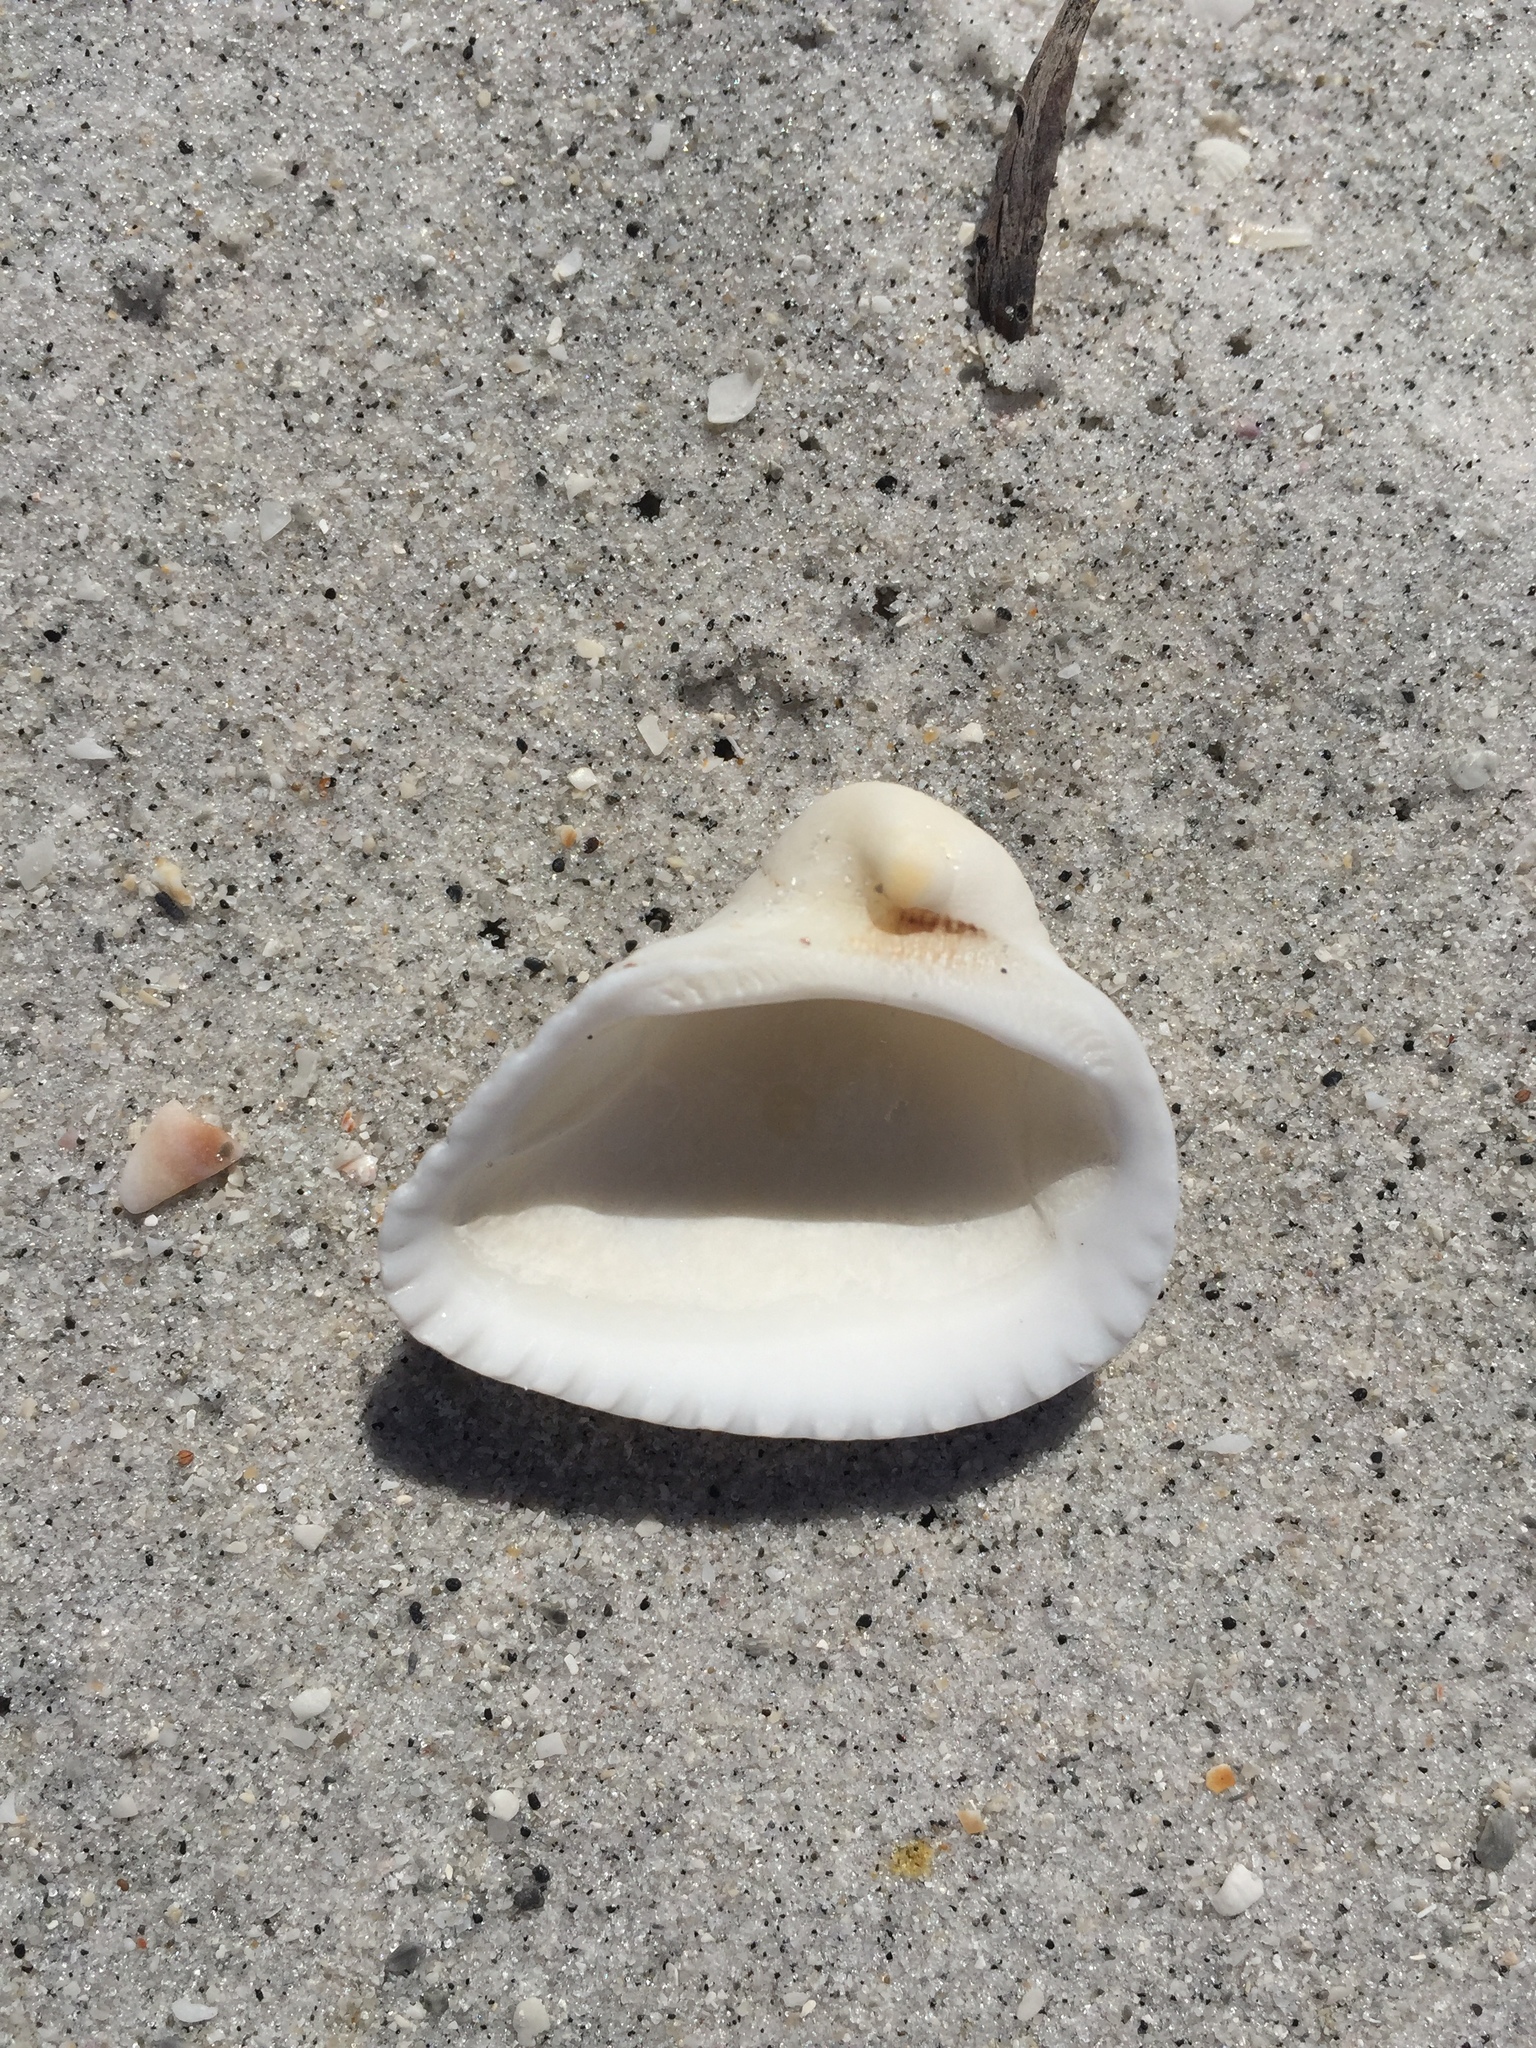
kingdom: Animalia
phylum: Mollusca
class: Bivalvia
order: Arcida
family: Noetiidae
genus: Noetia
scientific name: Noetia ponderosa
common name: Ponderous ark
